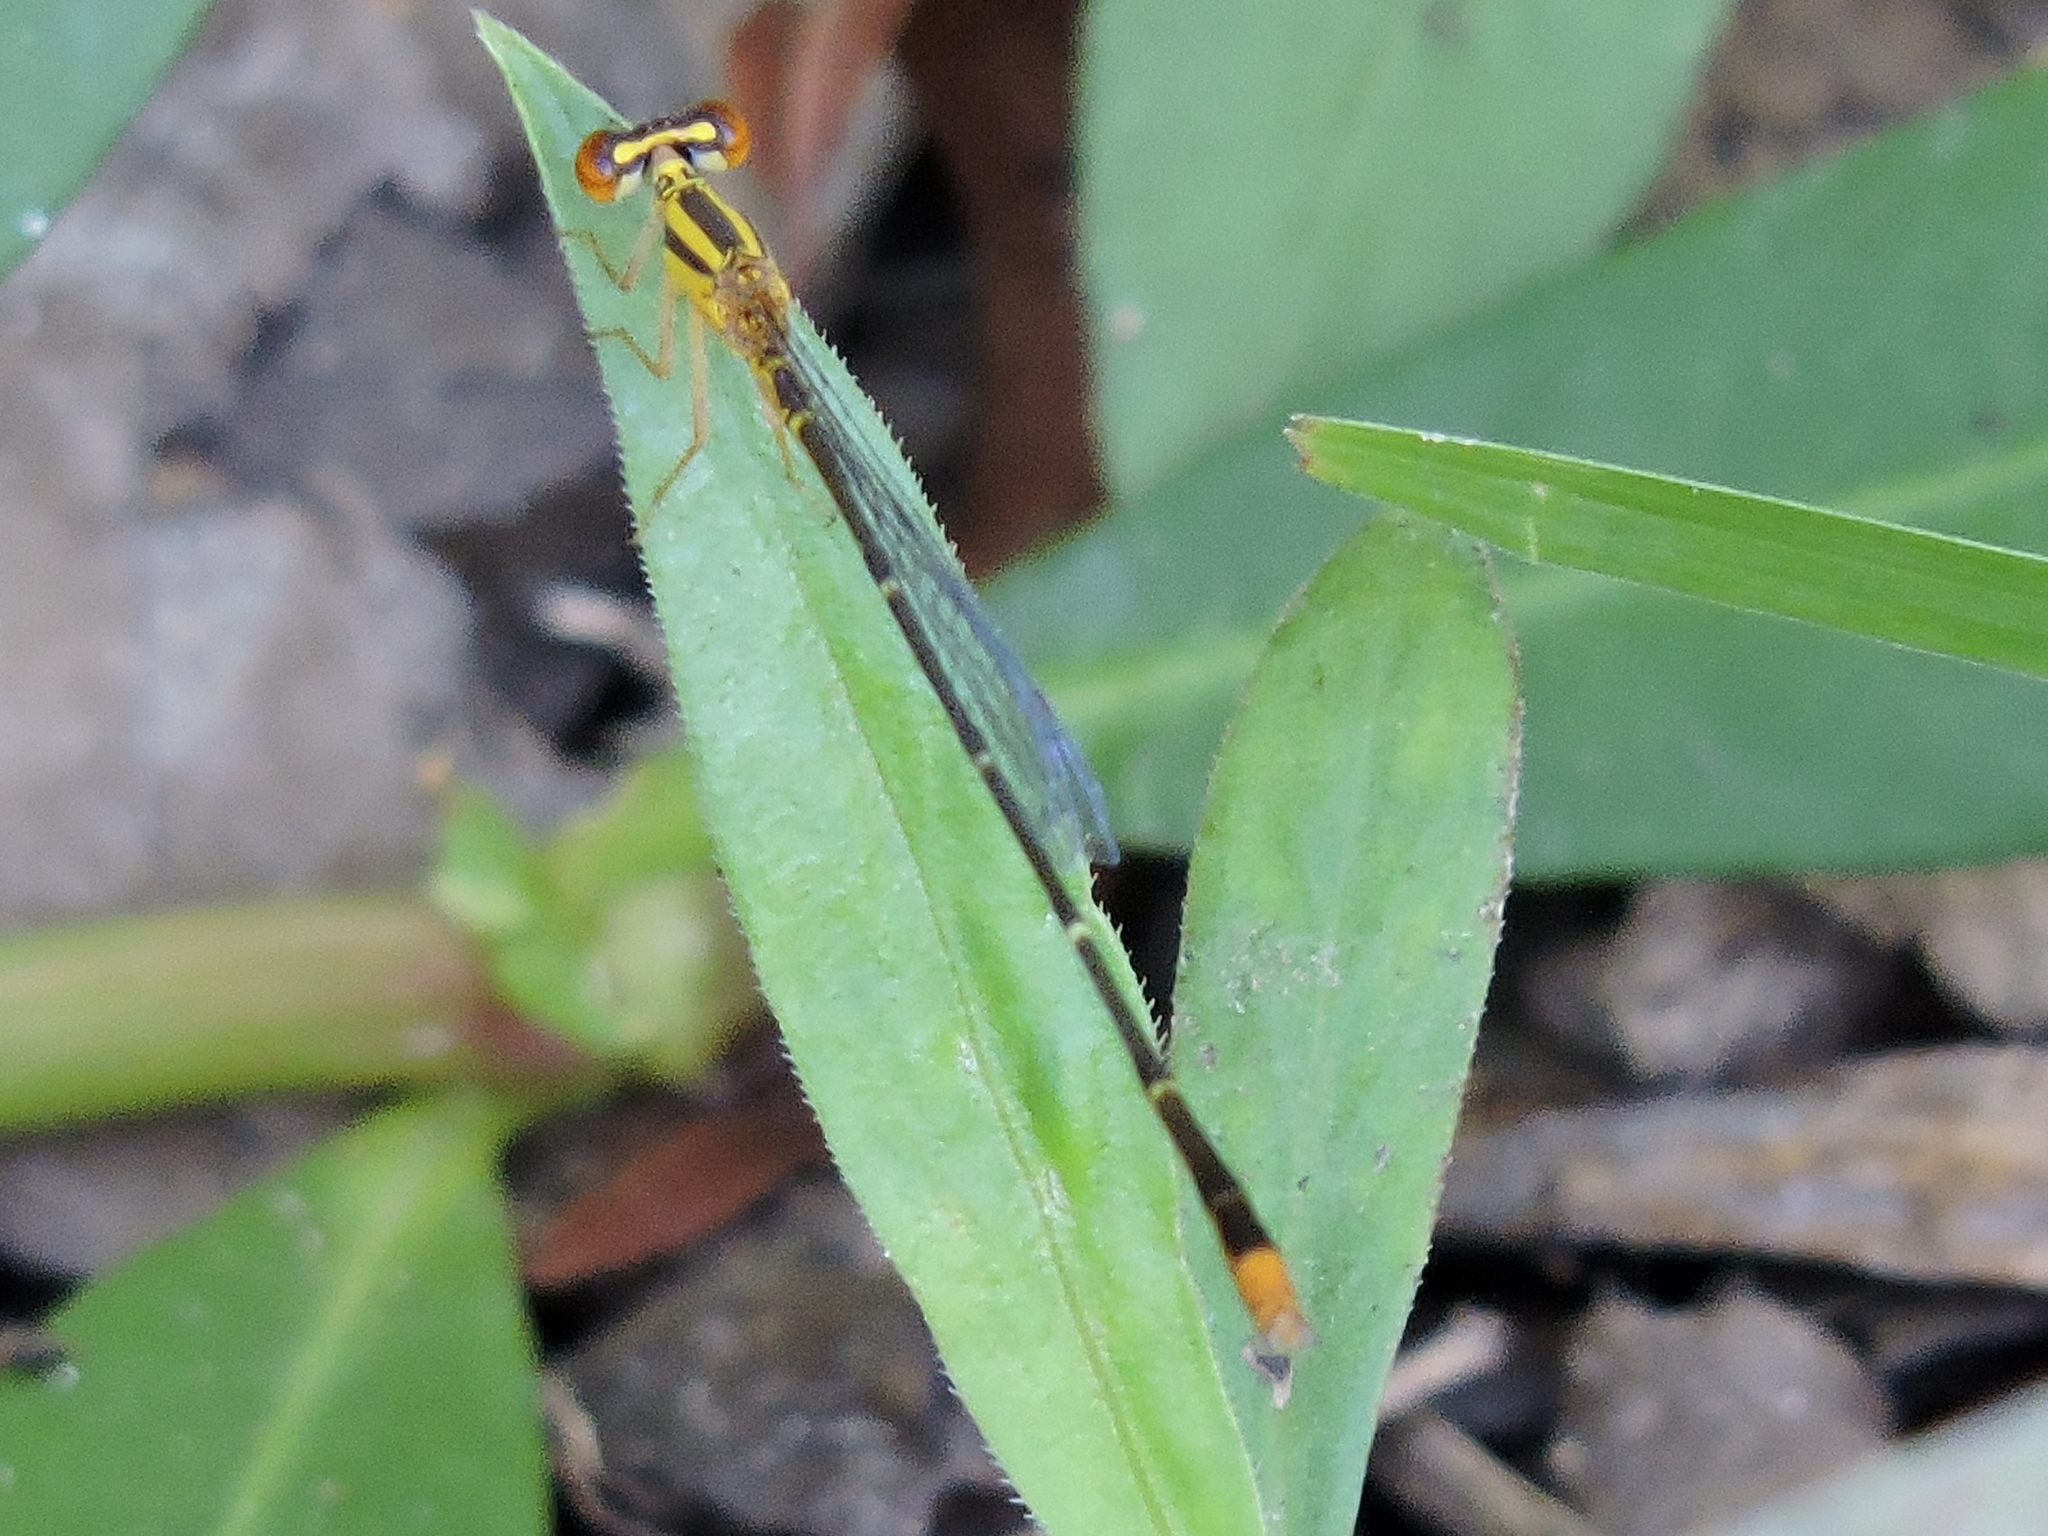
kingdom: Animalia
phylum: Arthropoda
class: Insecta
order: Odonata
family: Coenagrionidae
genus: Enallagma
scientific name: Enallagma signatum
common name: Orange bluet
